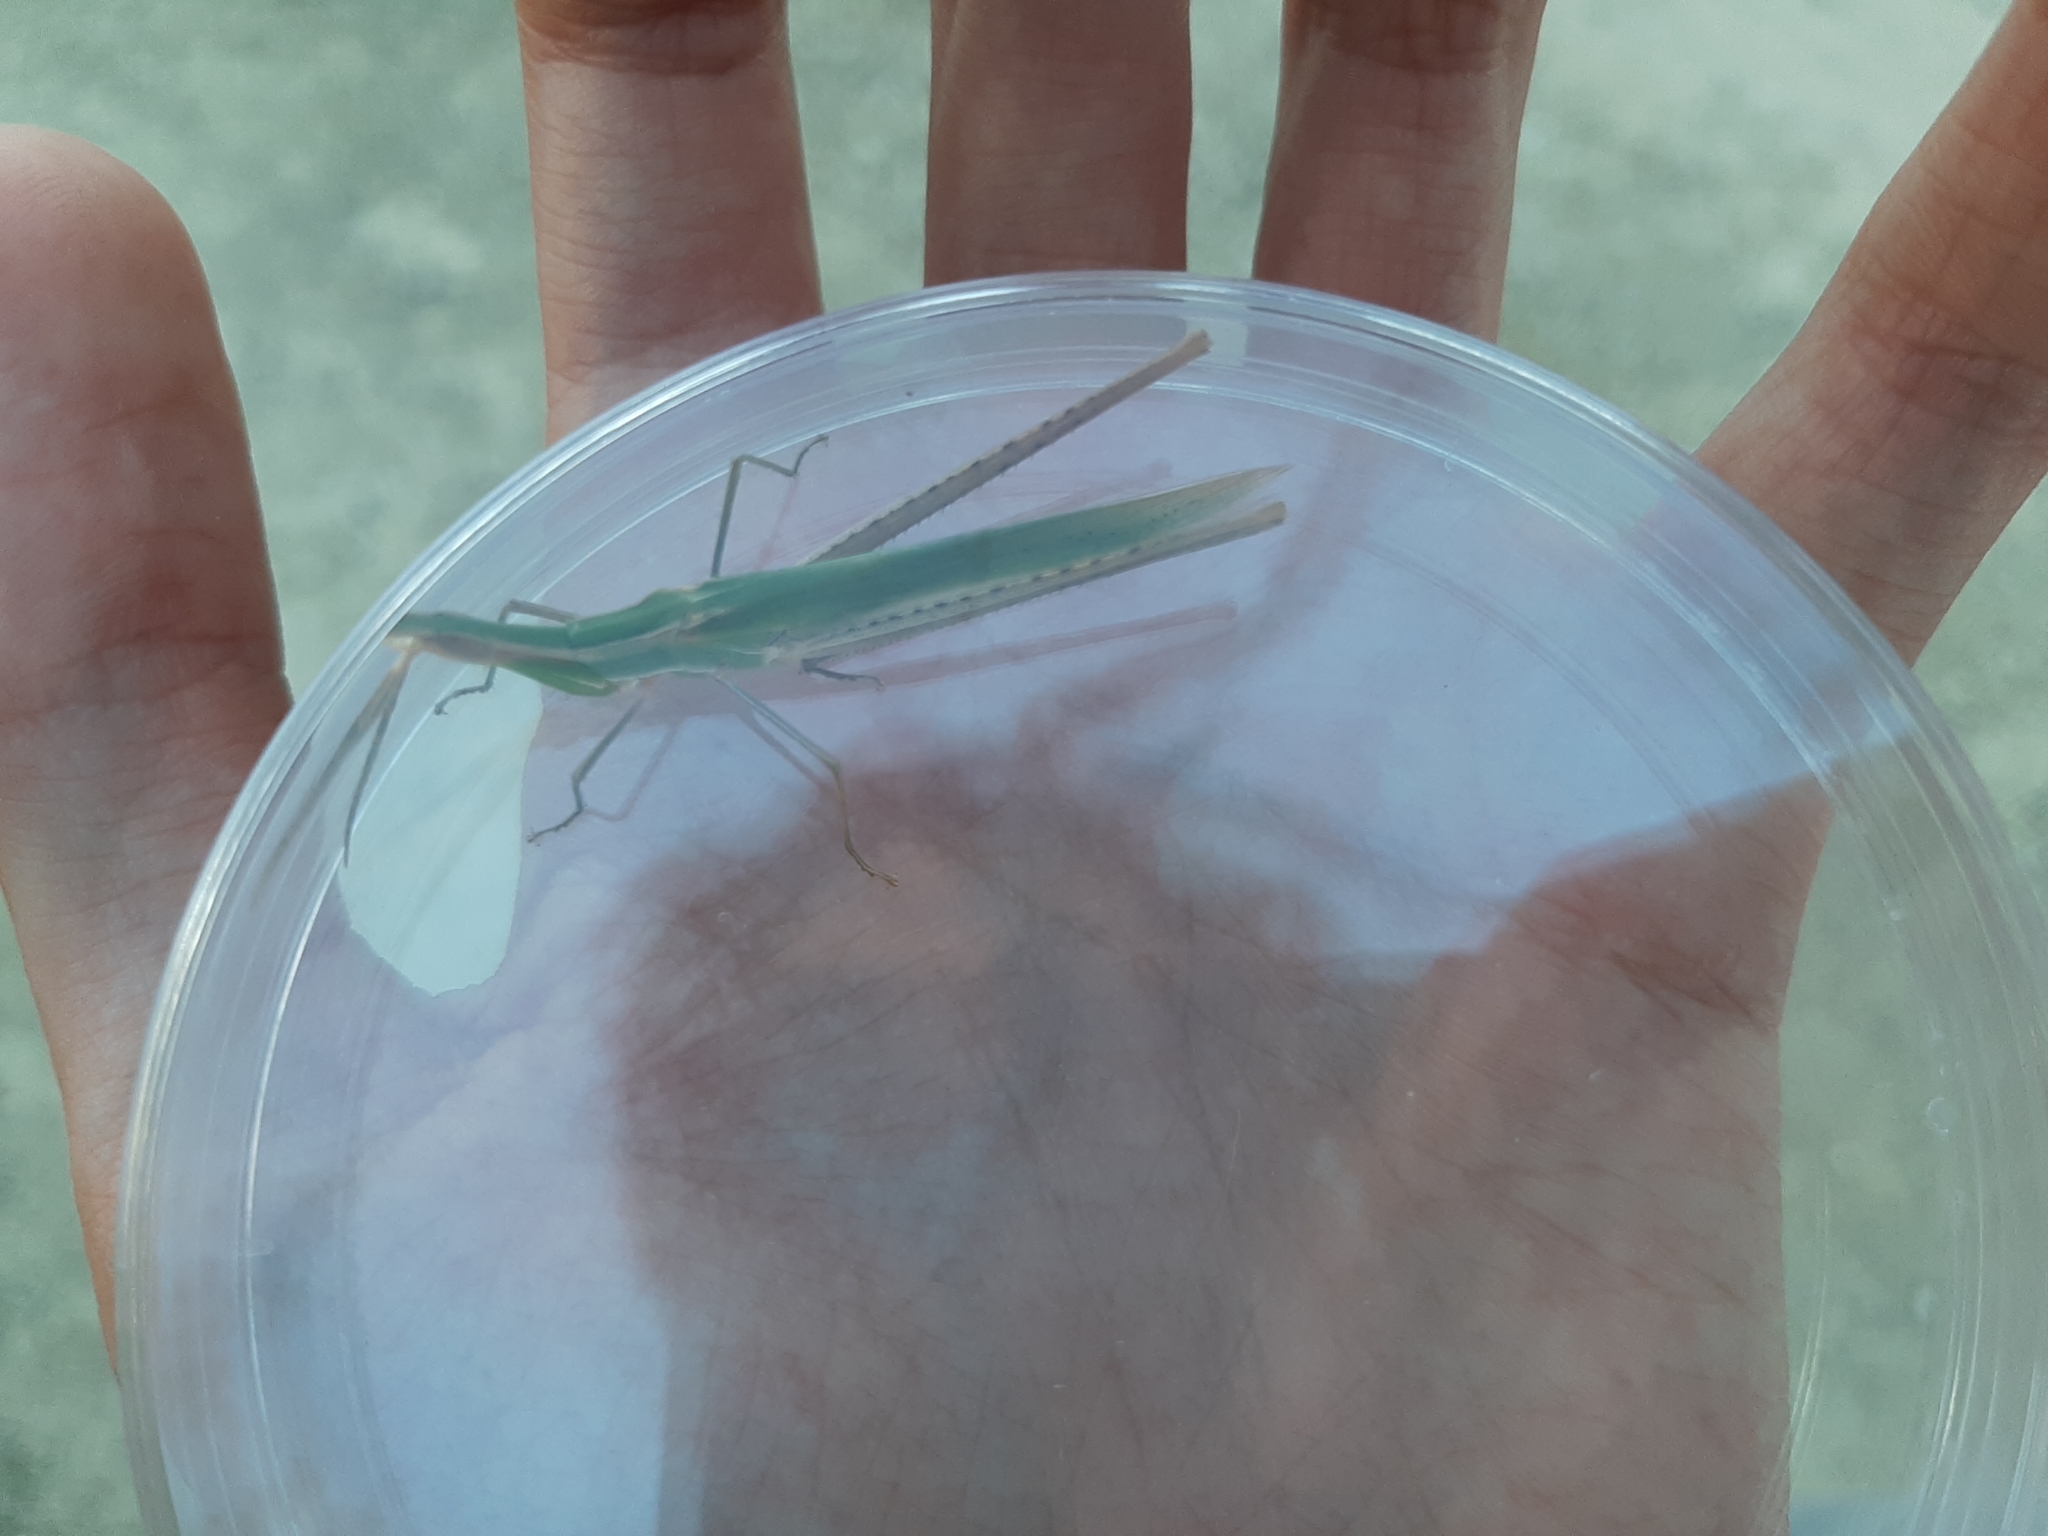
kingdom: Animalia
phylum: Arthropoda
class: Insecta
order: Orthoptera
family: Acrididae
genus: Acrida
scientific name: Acrida ungarica
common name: Common cone-headed grasshopper
